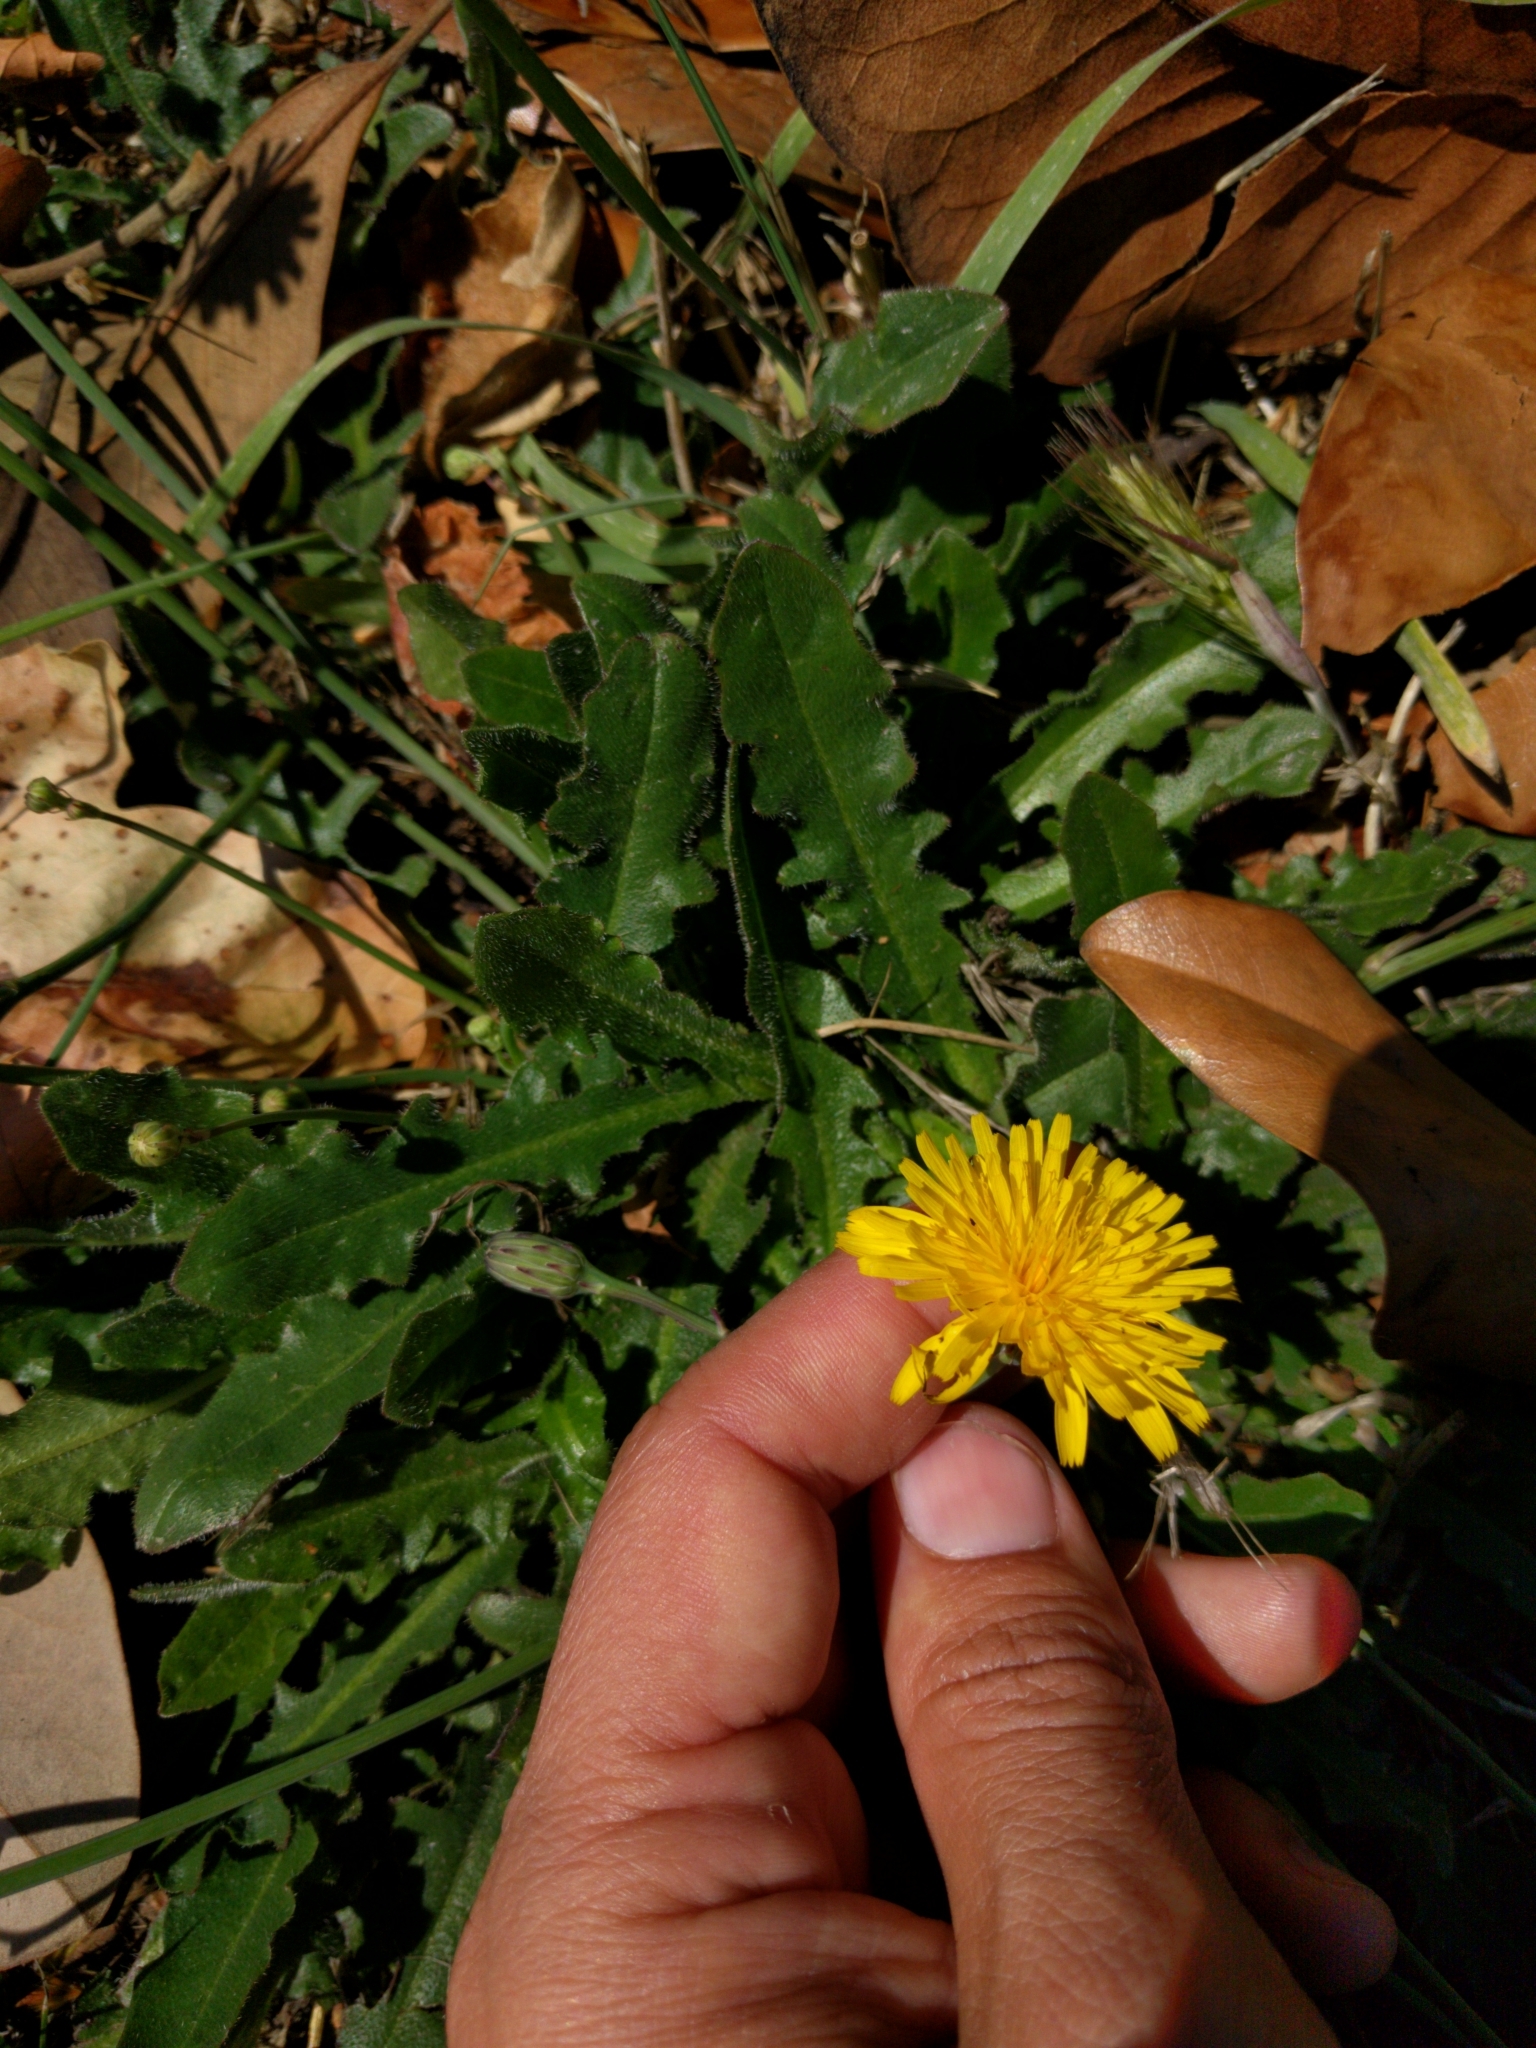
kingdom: Plantae
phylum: Tracheophyta
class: Magnoliopsida
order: Asterales
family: Asteraceae
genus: Hypochaeris
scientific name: Hypochaeris radicata
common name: Flatweed
